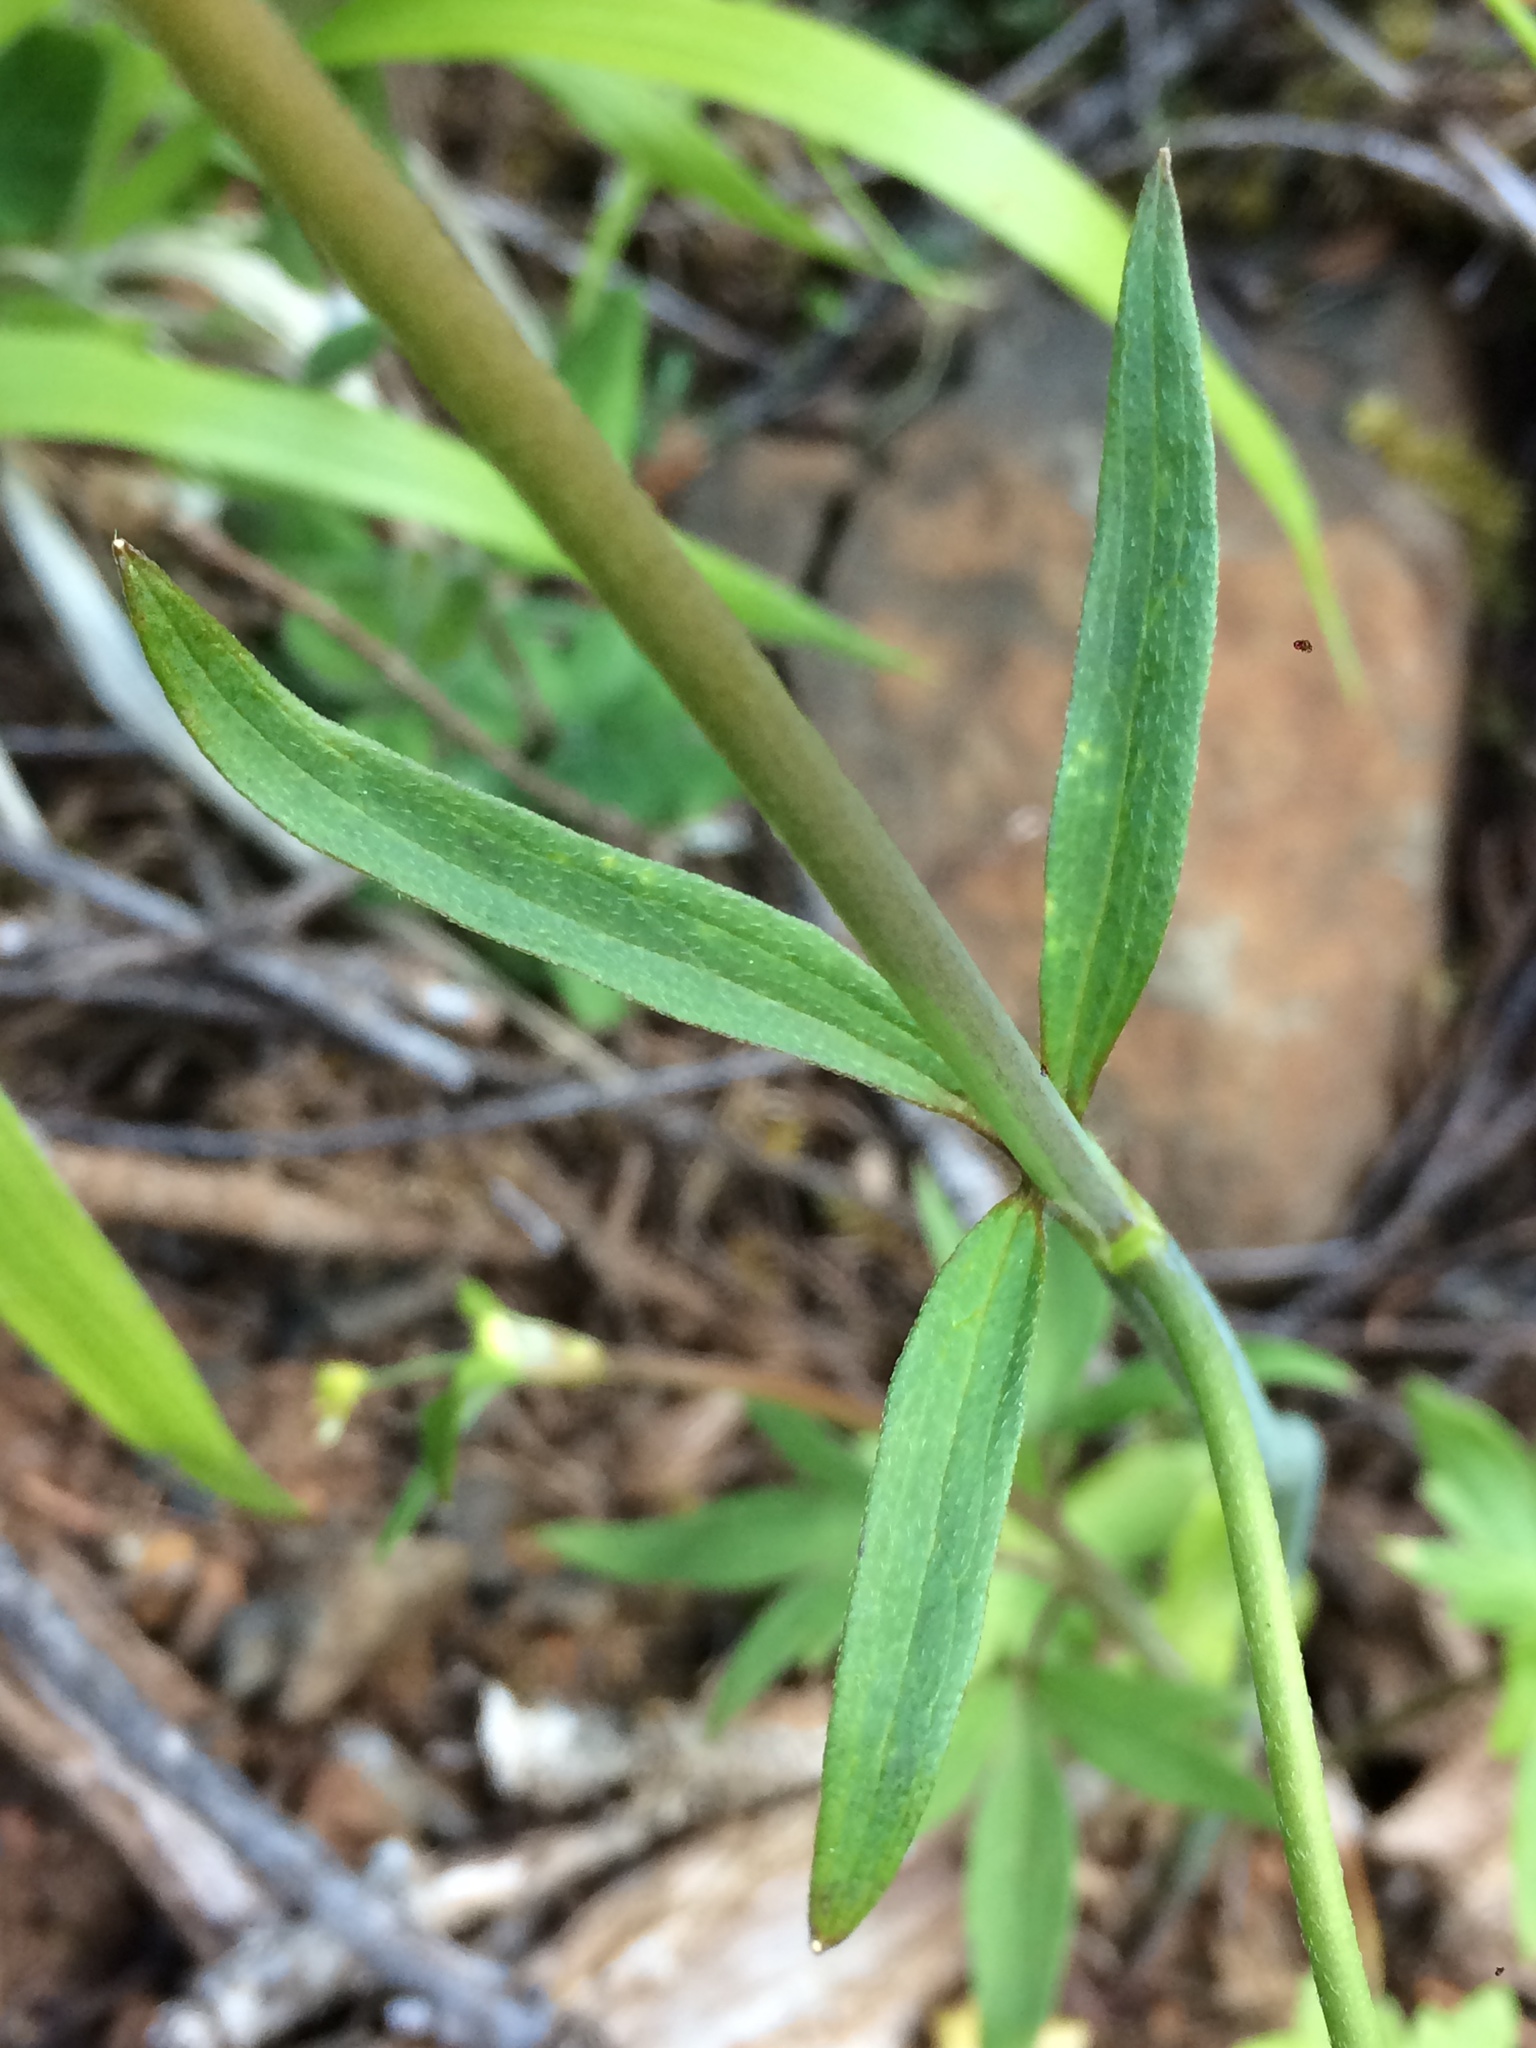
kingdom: Plantae
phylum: Tracheophyta
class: Magnoliopsida
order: Ranunculales
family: Ranunculaceae
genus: Ranunculus
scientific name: Ranunculus uncinatus
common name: Little buttercup
